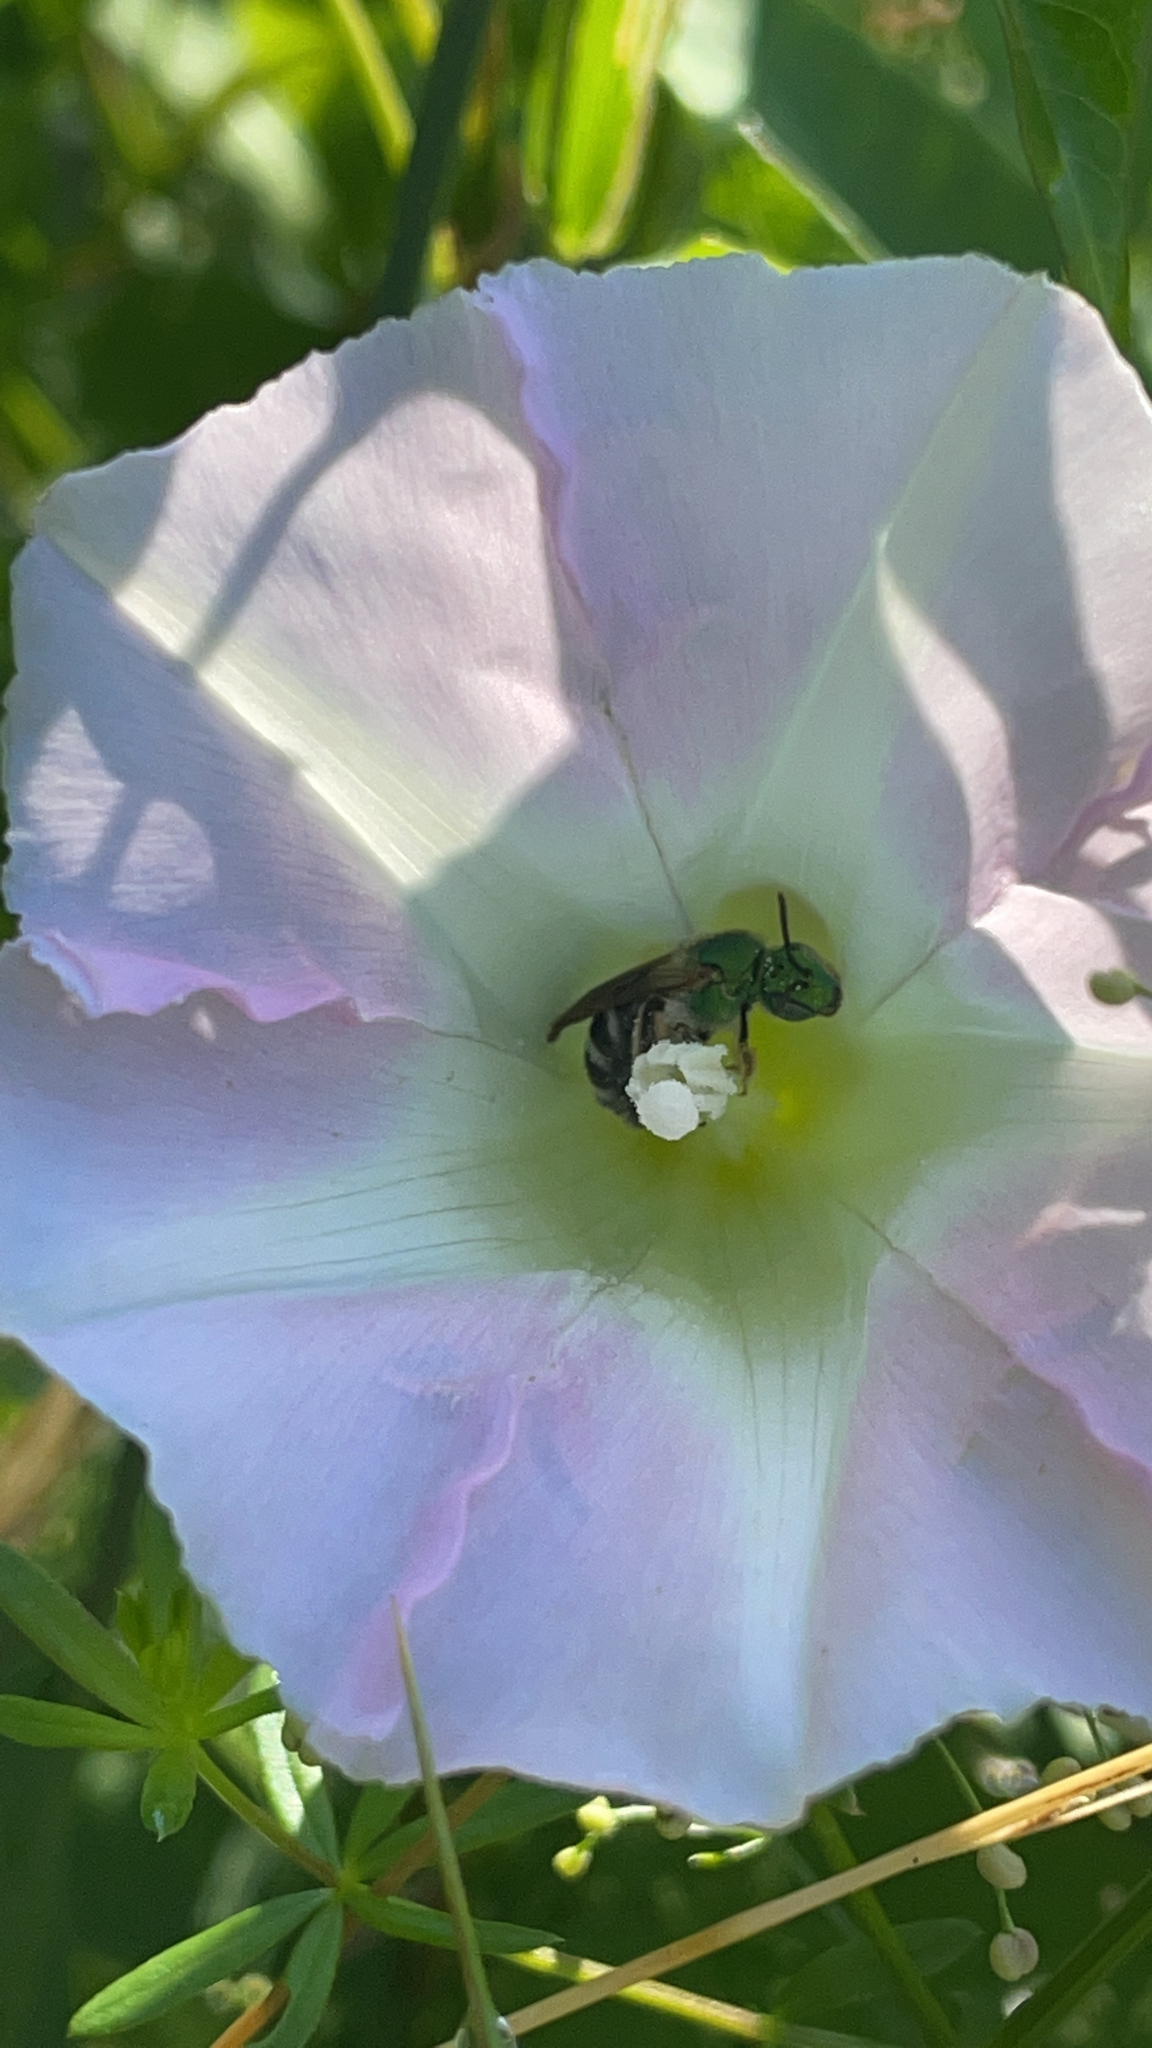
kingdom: Animalia
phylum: Arthropoda
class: Insecta
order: Hymenoptera
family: Halictidae
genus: Agapostemon
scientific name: Agapostemon virescens
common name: Bicolored striped sweat bee
